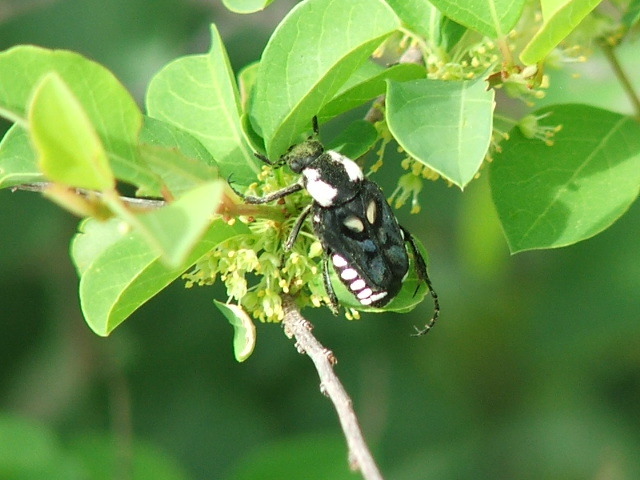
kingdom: Animalia
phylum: Arthropoda
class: Insecta
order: Coleoptera
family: Scarabaeidae
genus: Calometopus
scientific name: Calometopus nyassae
